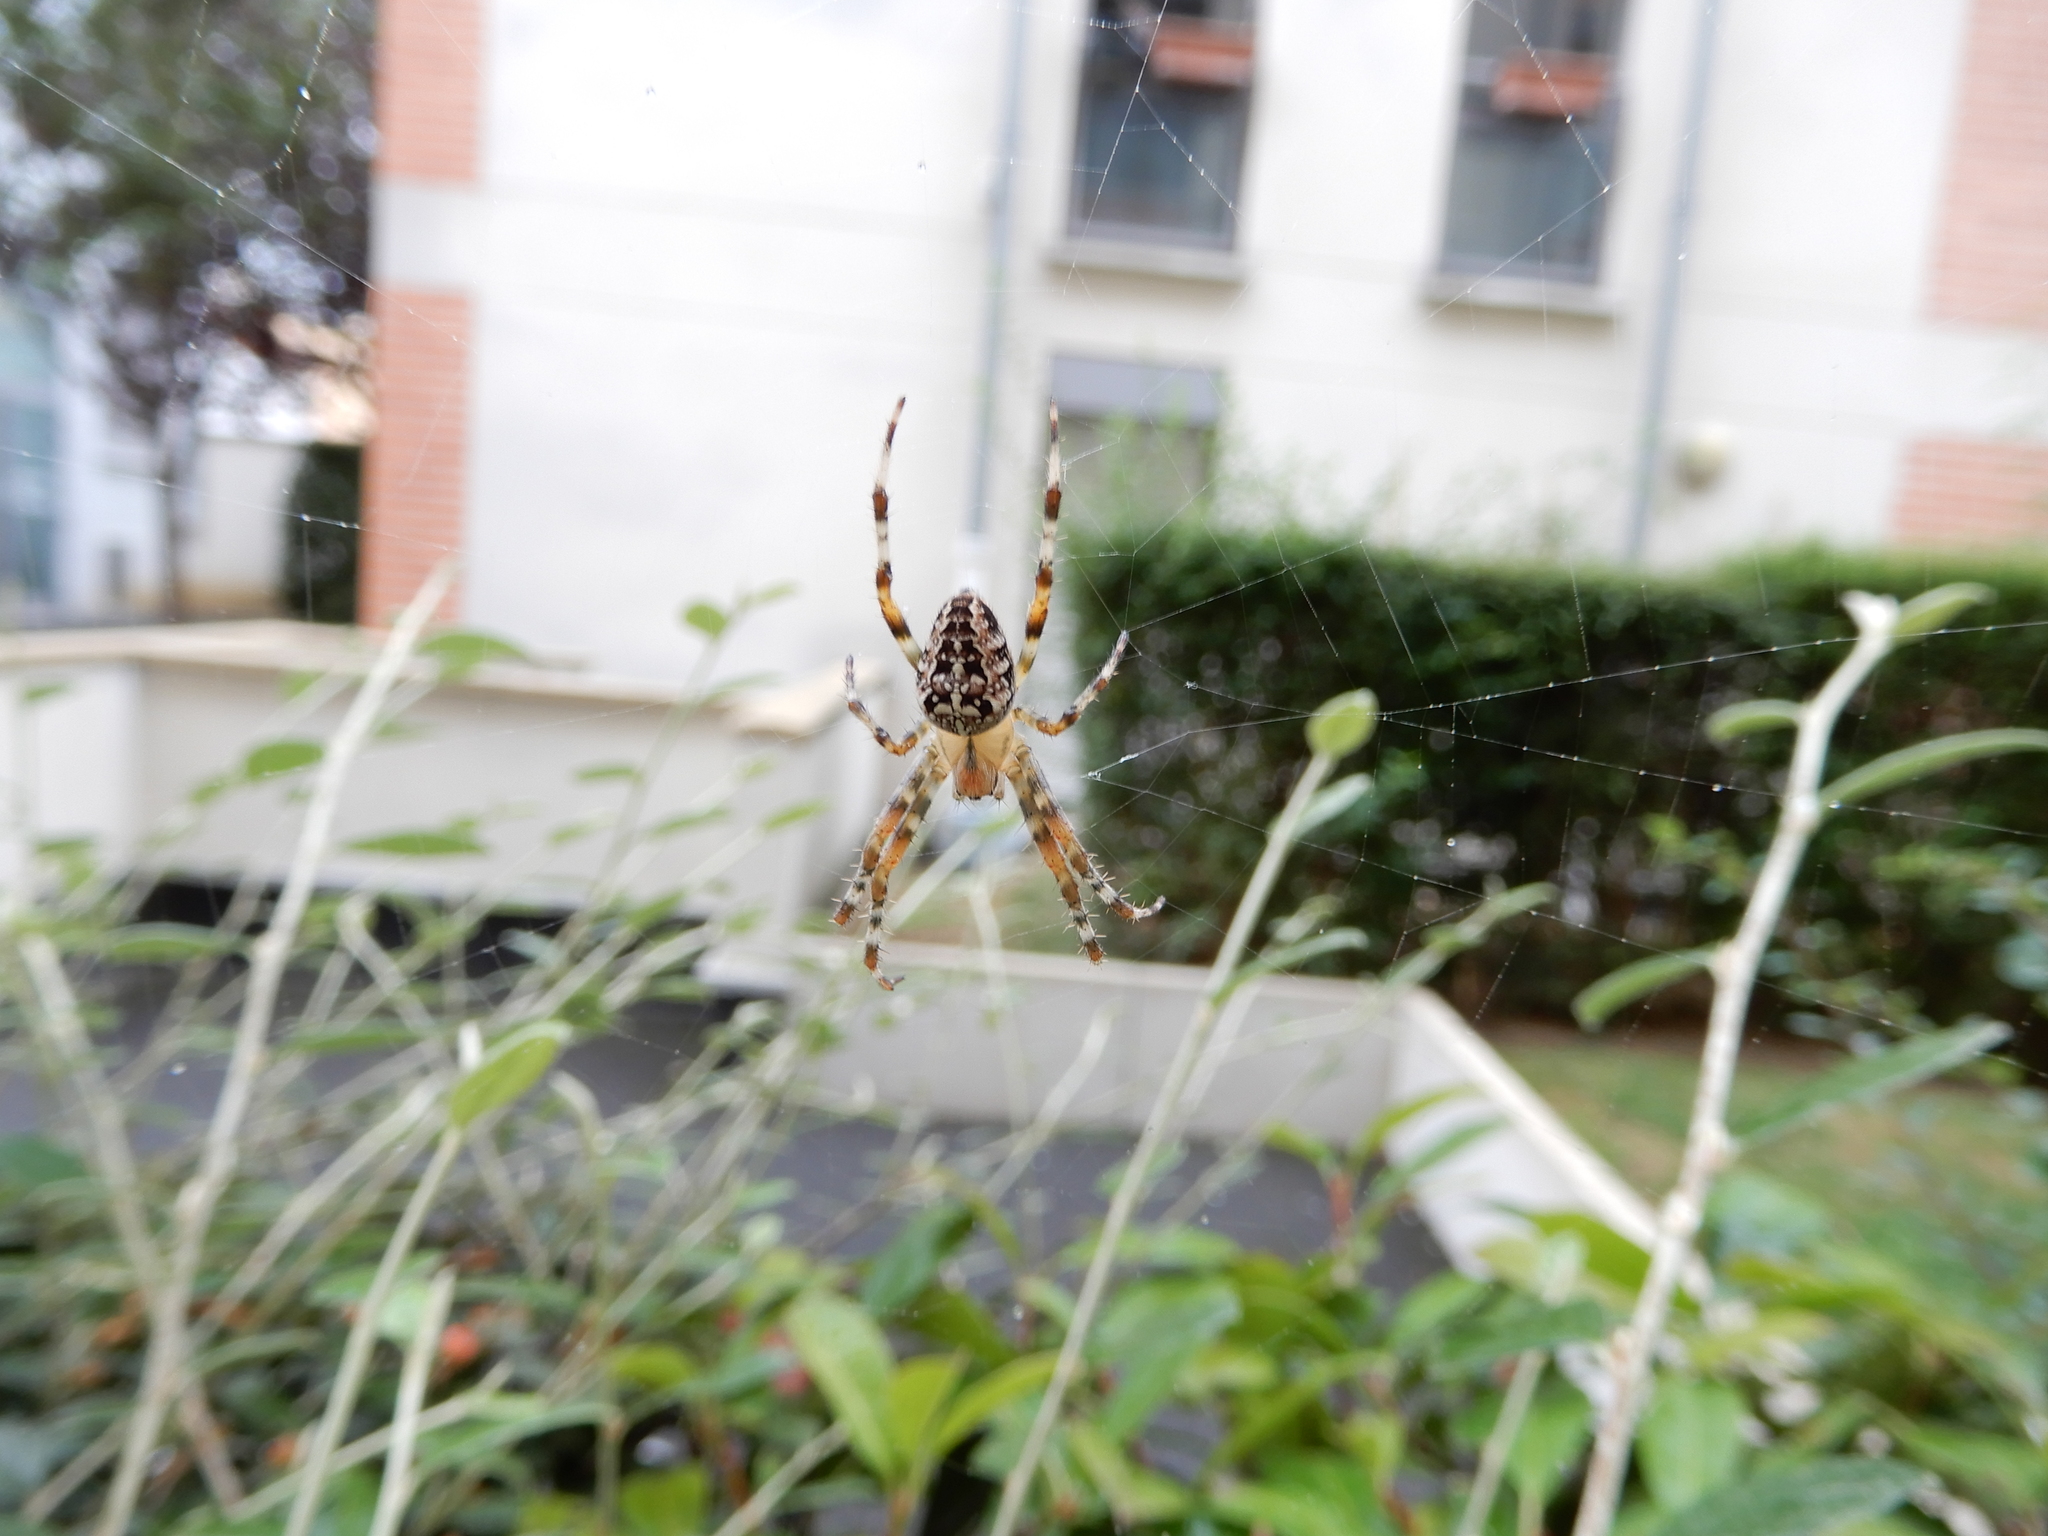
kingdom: Animalia
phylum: Arthropoda
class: Arachnida
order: Araneae
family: Araneidae
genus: Araneus
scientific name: Araneus diadematus
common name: Cross orbweaver
